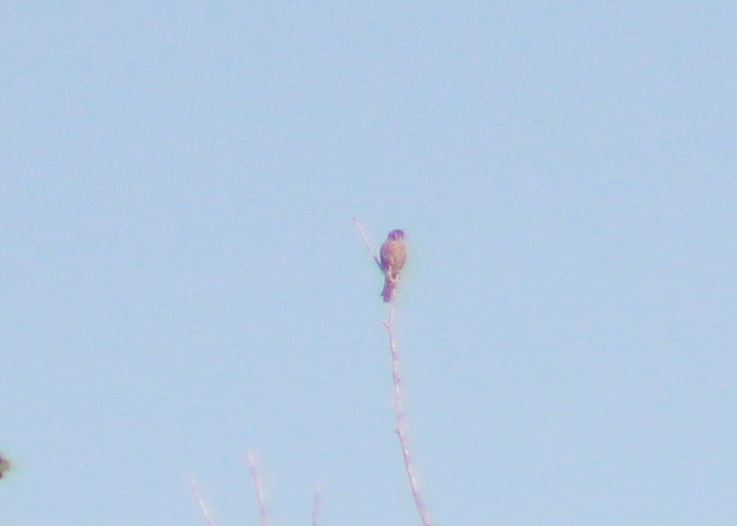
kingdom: Animalia
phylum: Chordata
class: Aves
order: Falconiformes
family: Falconidae
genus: Falco
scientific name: Falco sparverius
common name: American kestrel
